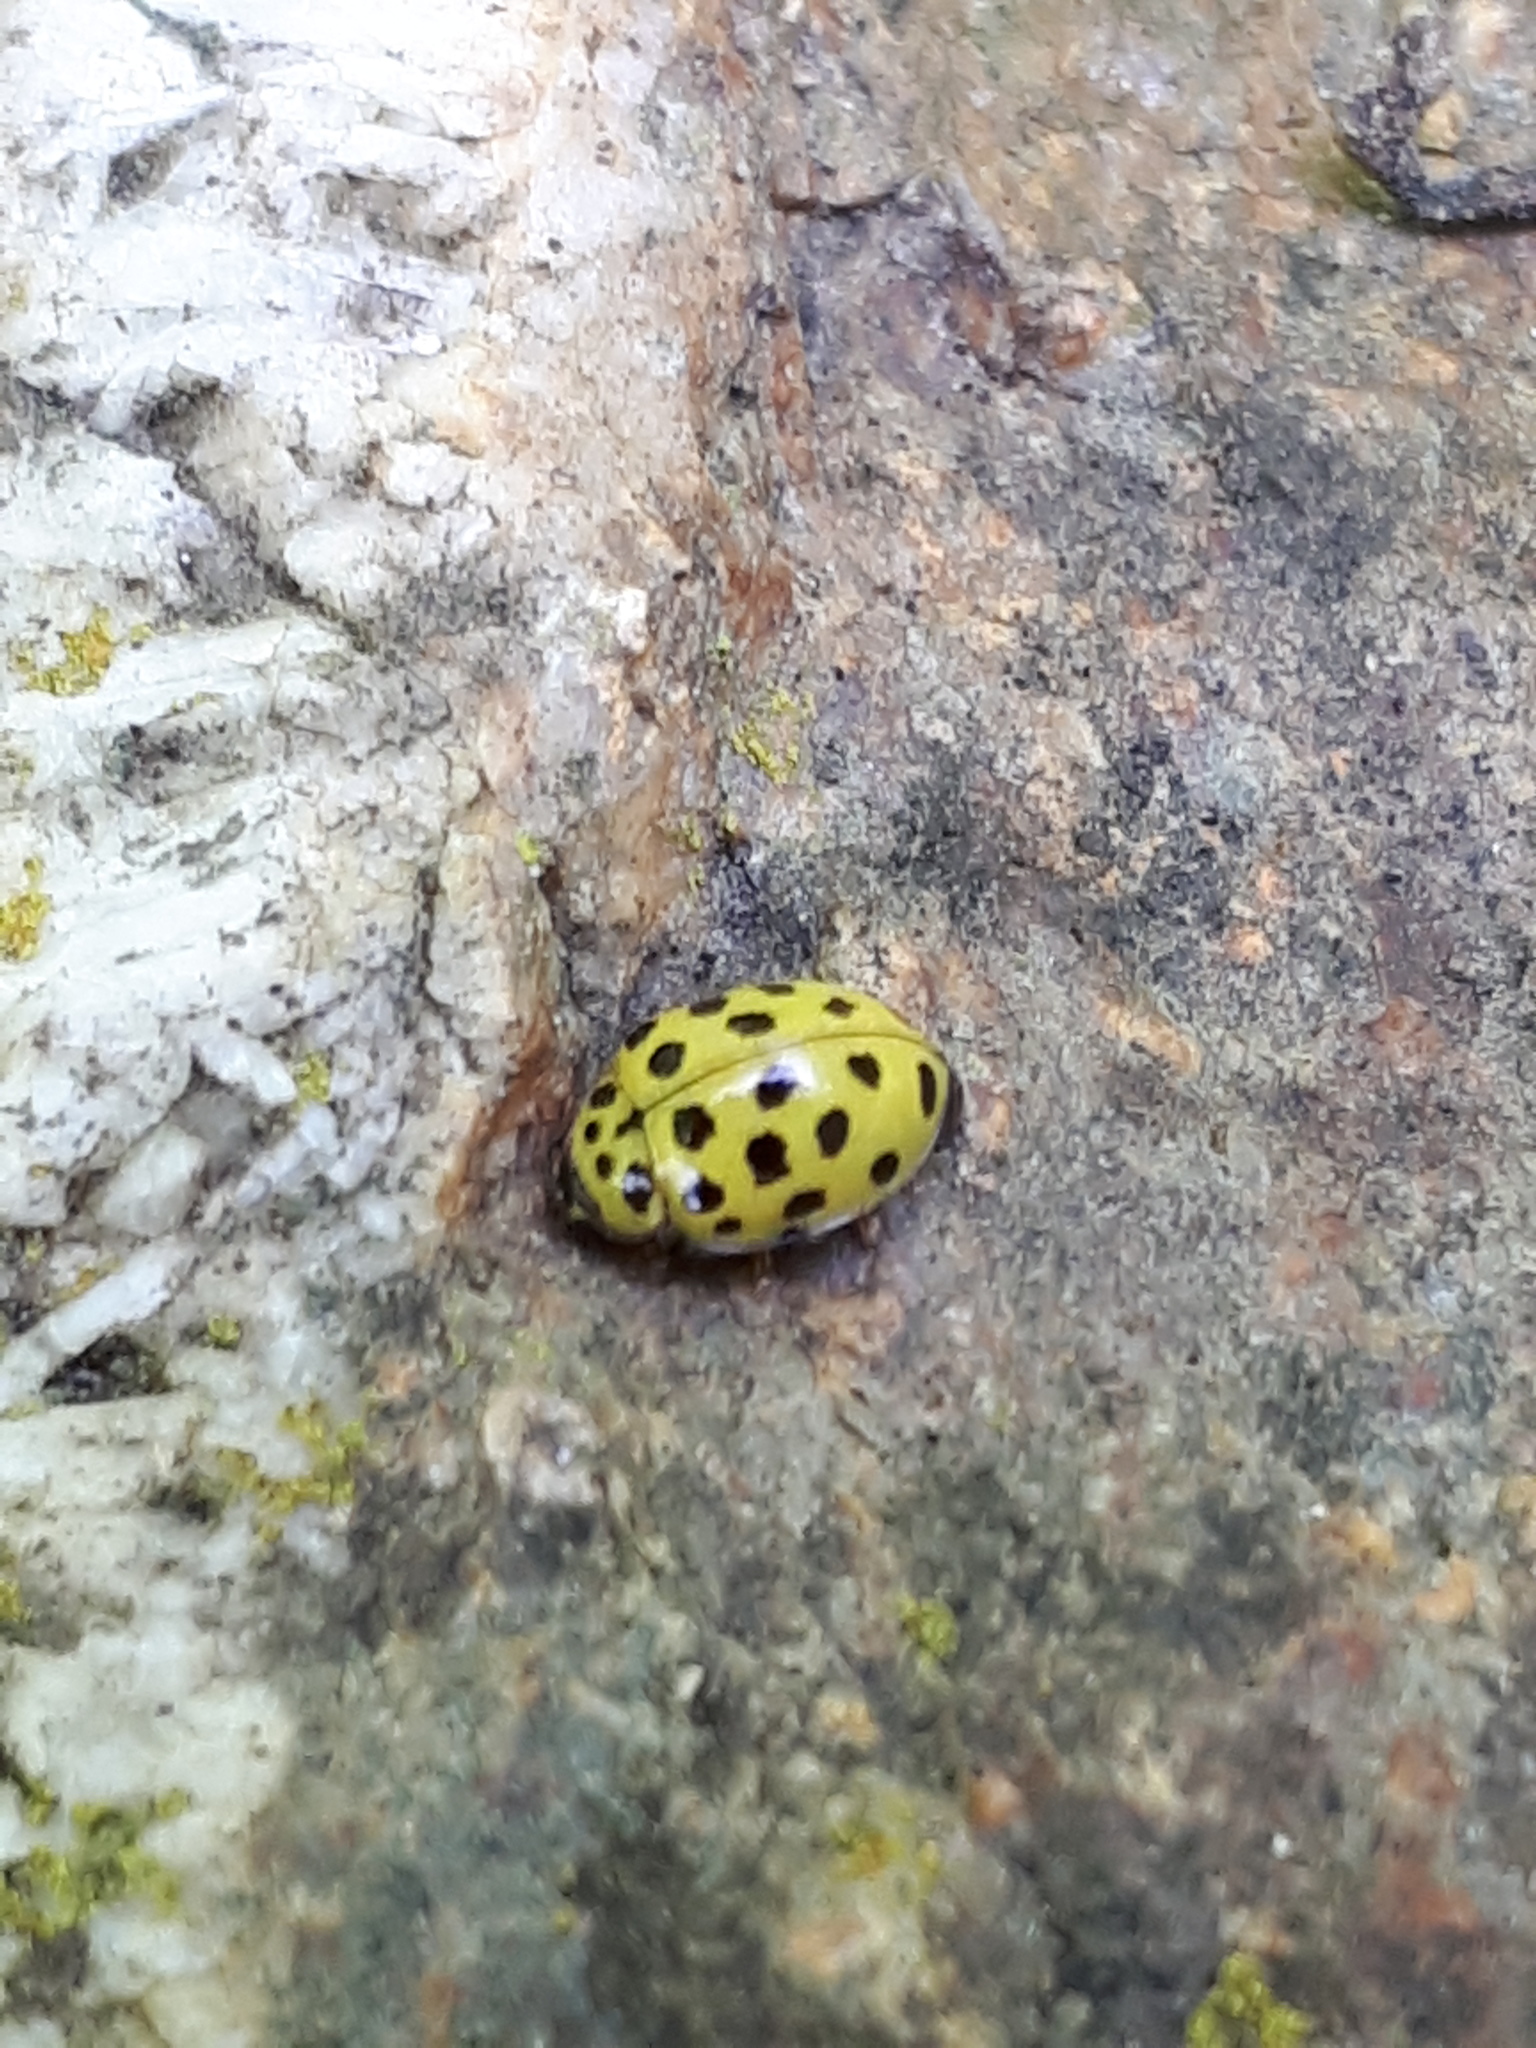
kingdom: Animalia
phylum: Arthropoda
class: Insecta
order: Coleoptera
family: Coccinellidae
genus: Psyllobora
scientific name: Psyllobora vigintiduopunctata
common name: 22-spot ladybird
